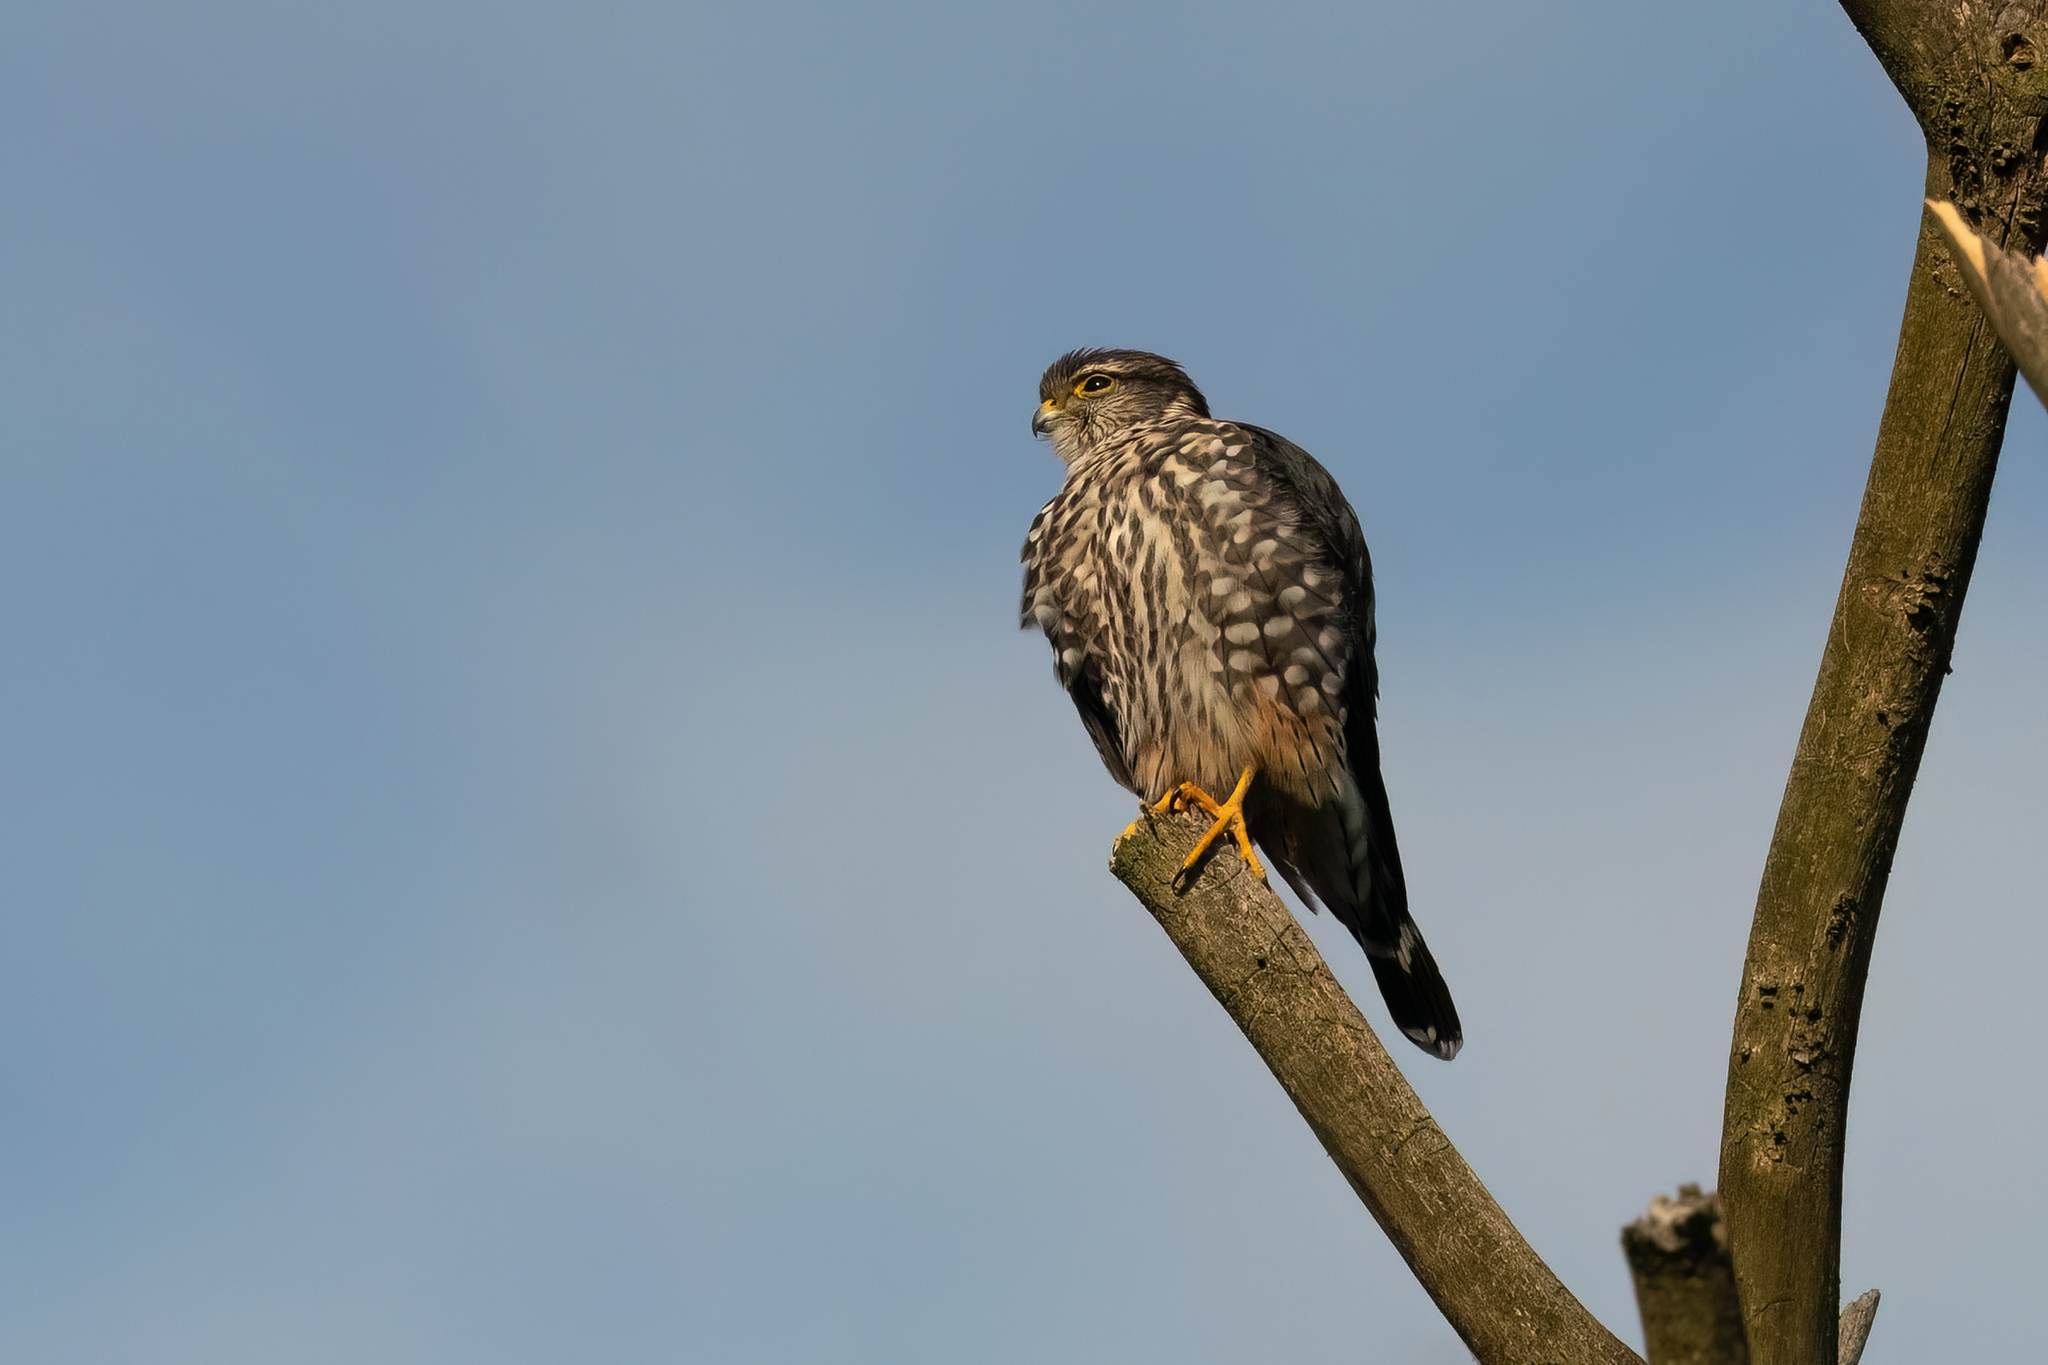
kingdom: Animalia
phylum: Chordata
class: Aves
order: Falconiformes
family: Falconidae
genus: Falco
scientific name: Falco columbarius
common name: Merlin
